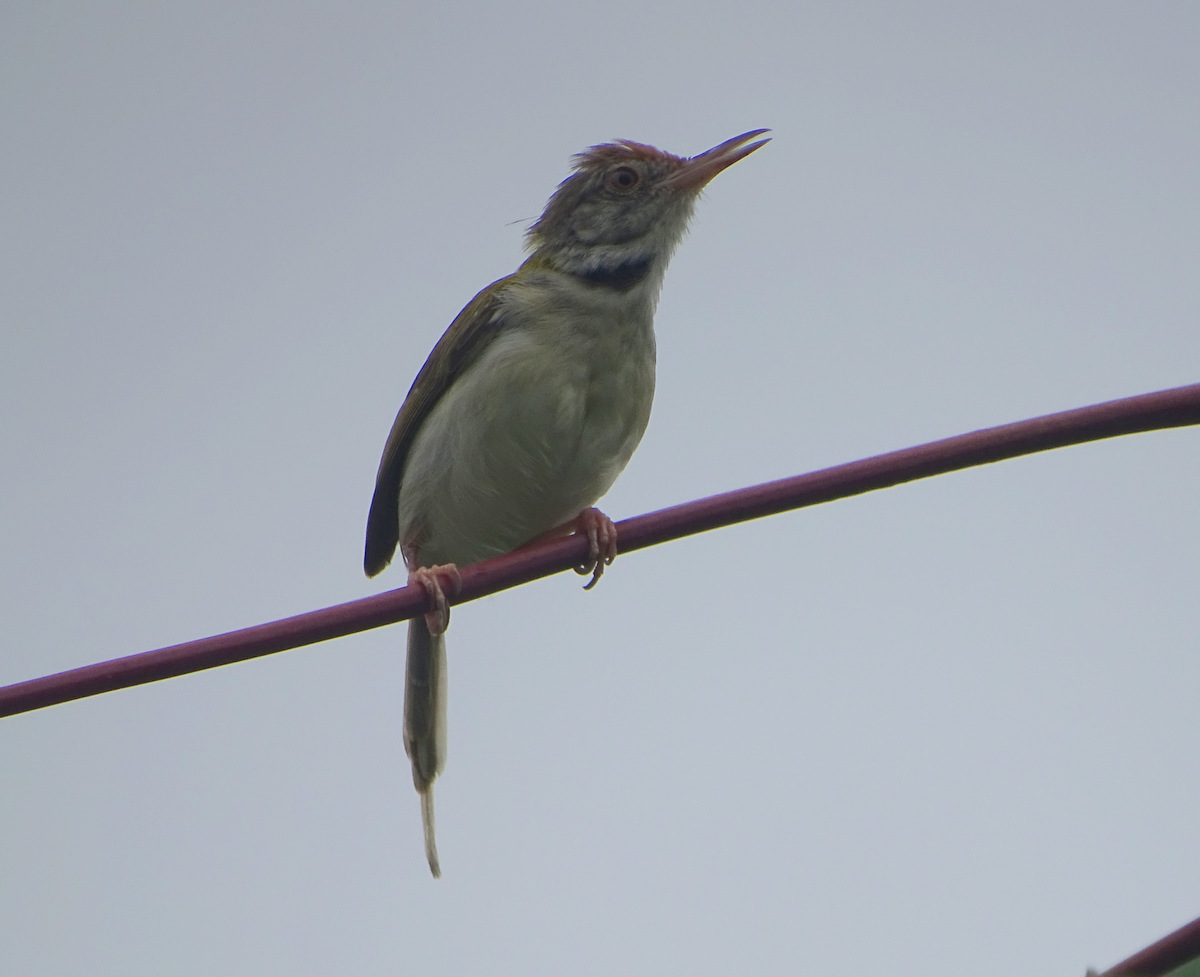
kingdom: Animalia
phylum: Chordata
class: Aves
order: Passeriformes
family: Cisticolidae
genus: Orthotomus
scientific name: Orthotomus sutorius
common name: Common tailorbird
